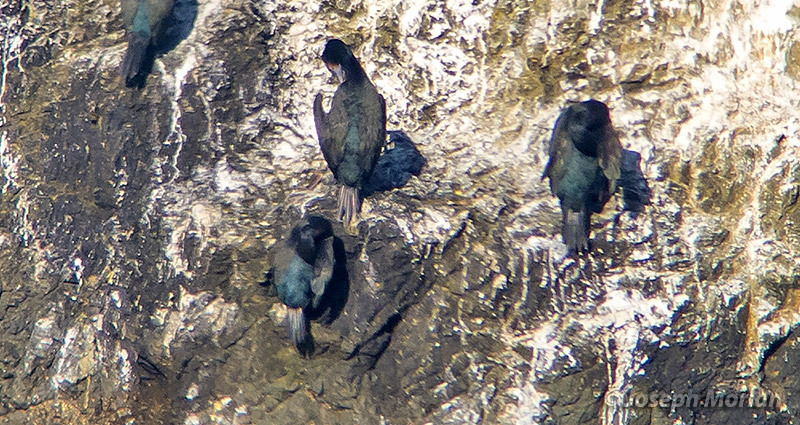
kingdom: Animalia
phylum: Chordata
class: Aves
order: Suliformes
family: Phalacrocoracidae
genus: Phalacrocorax
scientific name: Phalacrocorax pelagicus
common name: Pelagic cormorant
